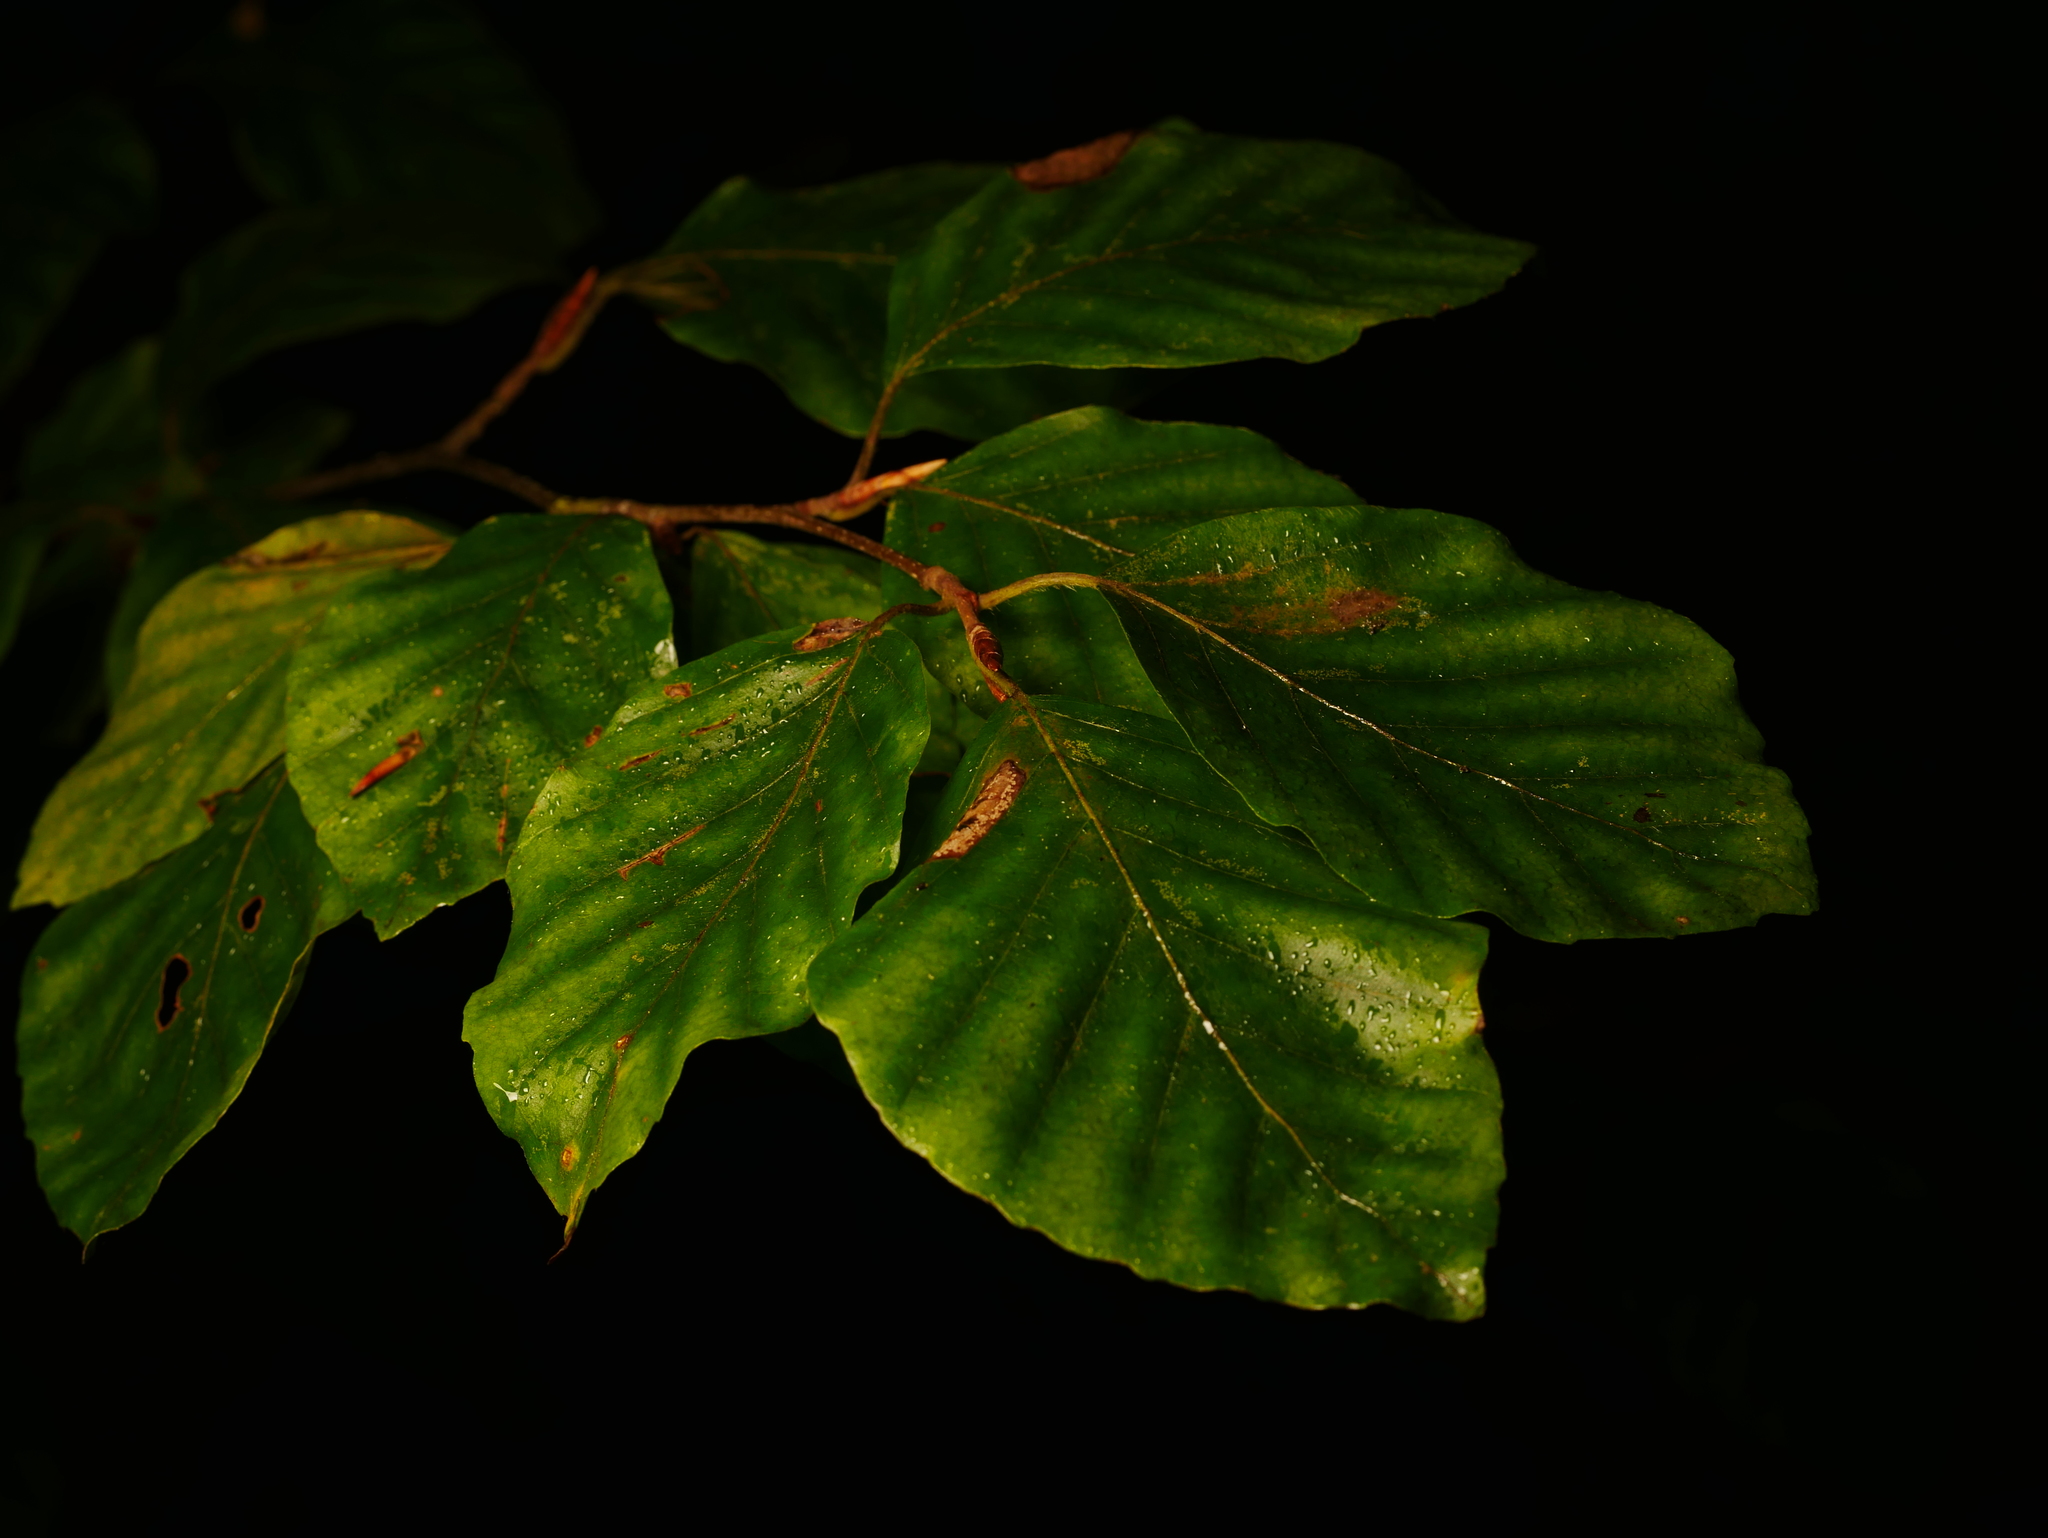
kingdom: Plantae
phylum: Tracheophyta
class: Magnoliopsida
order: Fagales
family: Fagaceae
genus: Fagus
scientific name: Fagus sylvatica
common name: Beech
